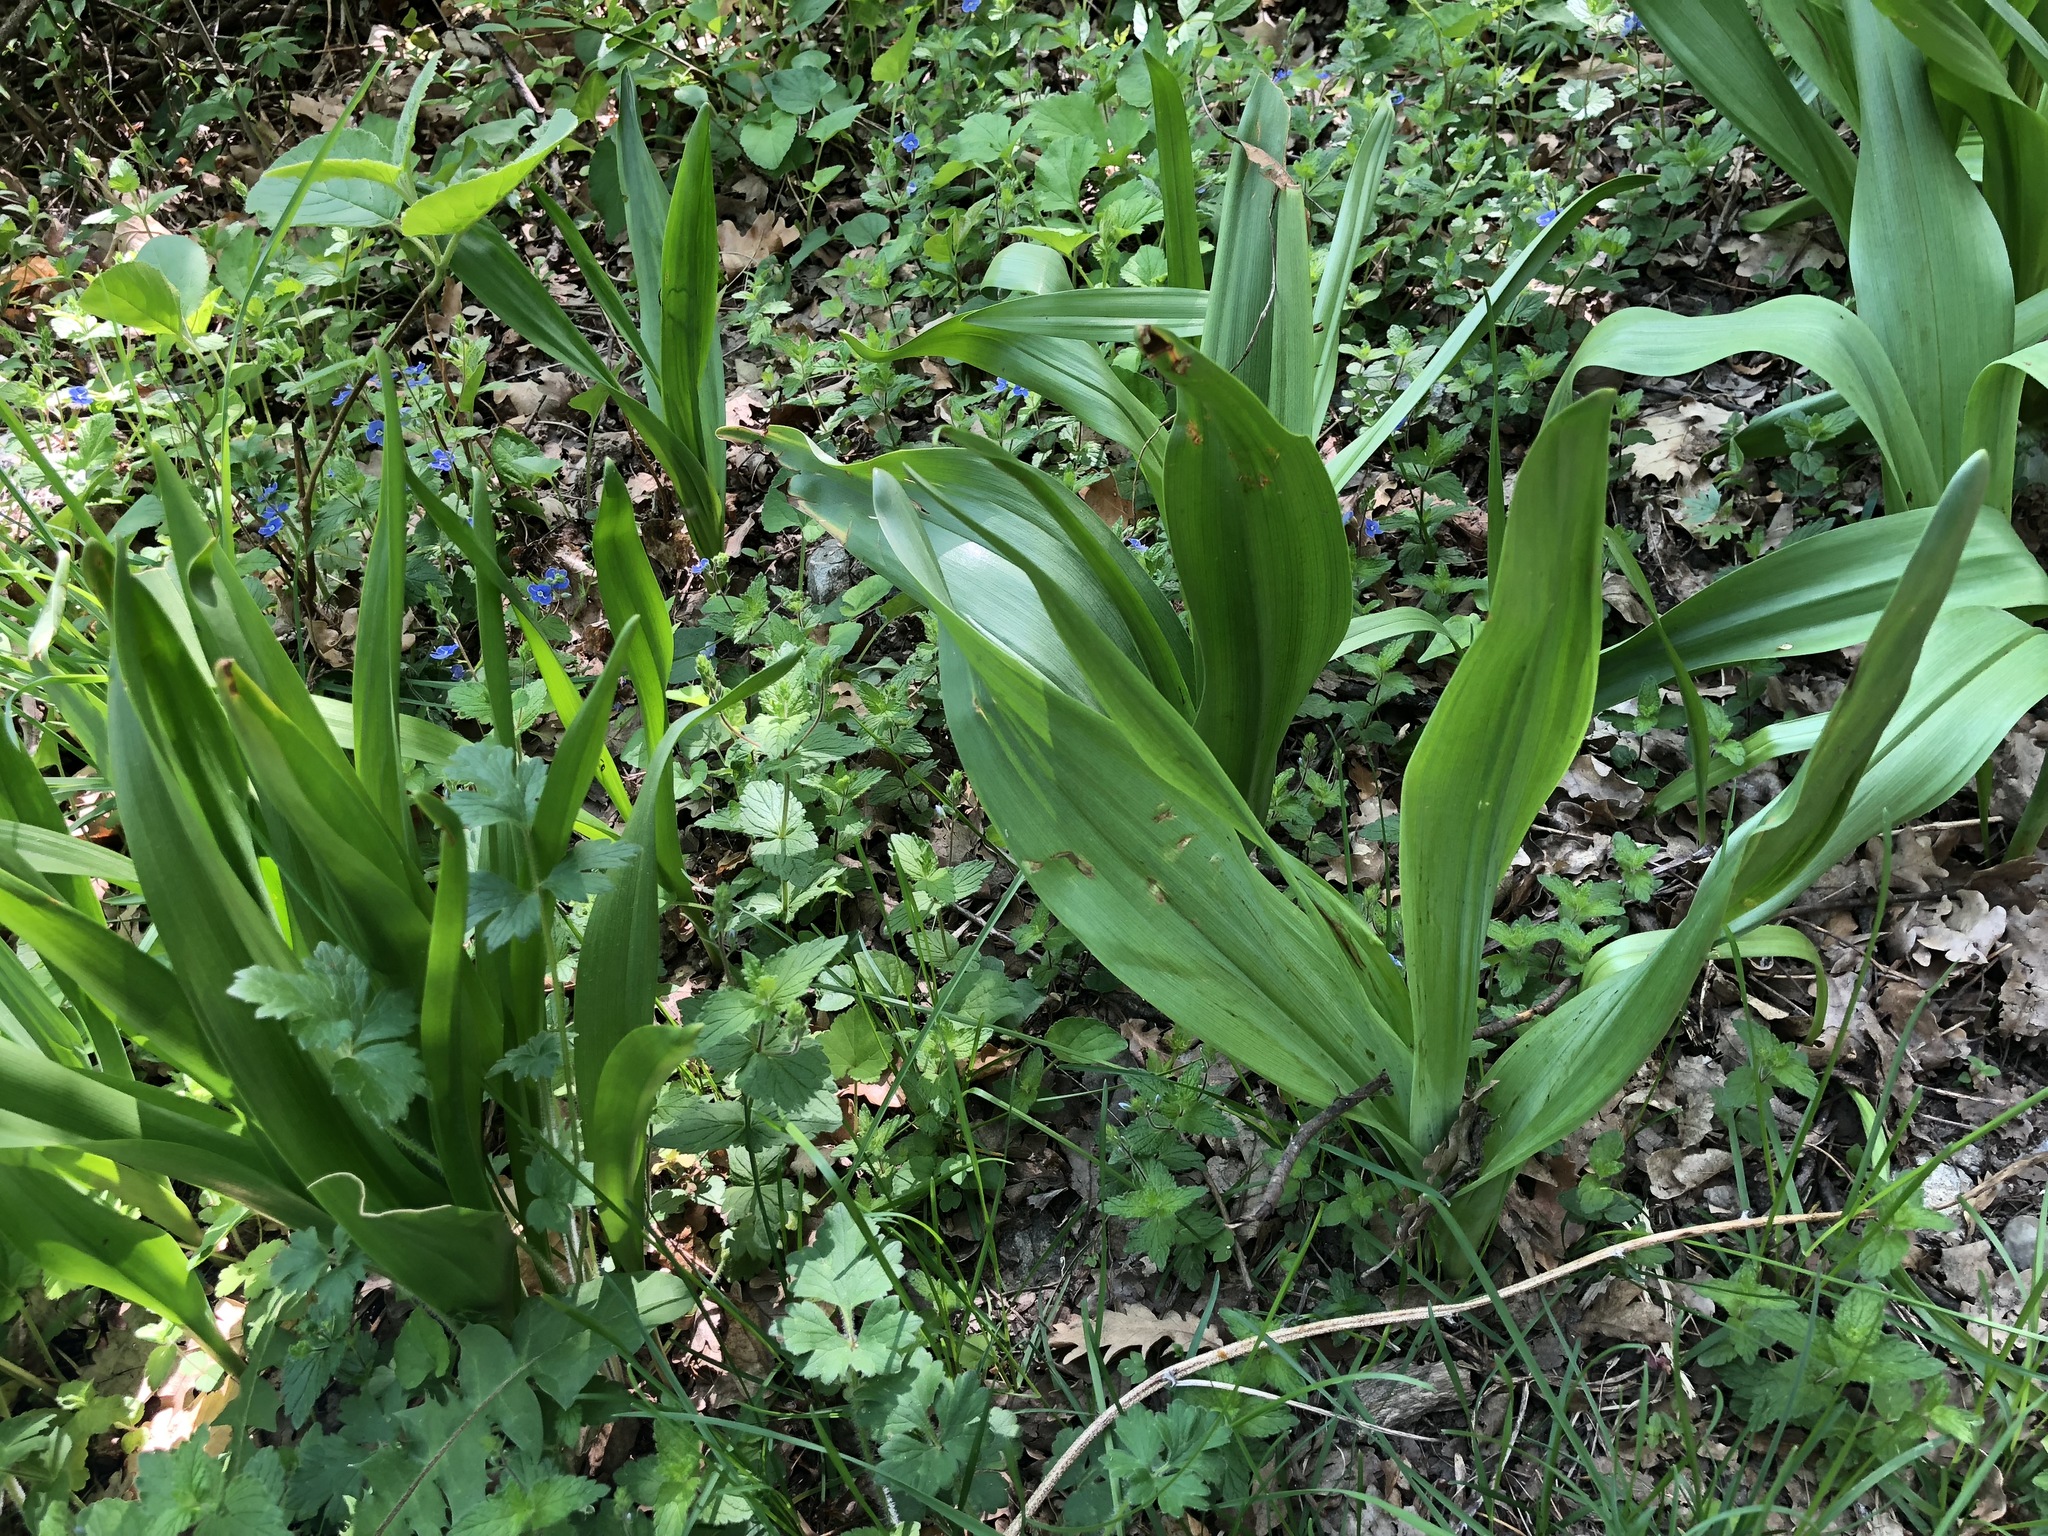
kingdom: Plantae
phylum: Tracheophyta
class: Liliopsida
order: Liliales
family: Colchicaceae
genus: Colchicum
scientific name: Colchicum autumnale
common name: Autumn crocus
